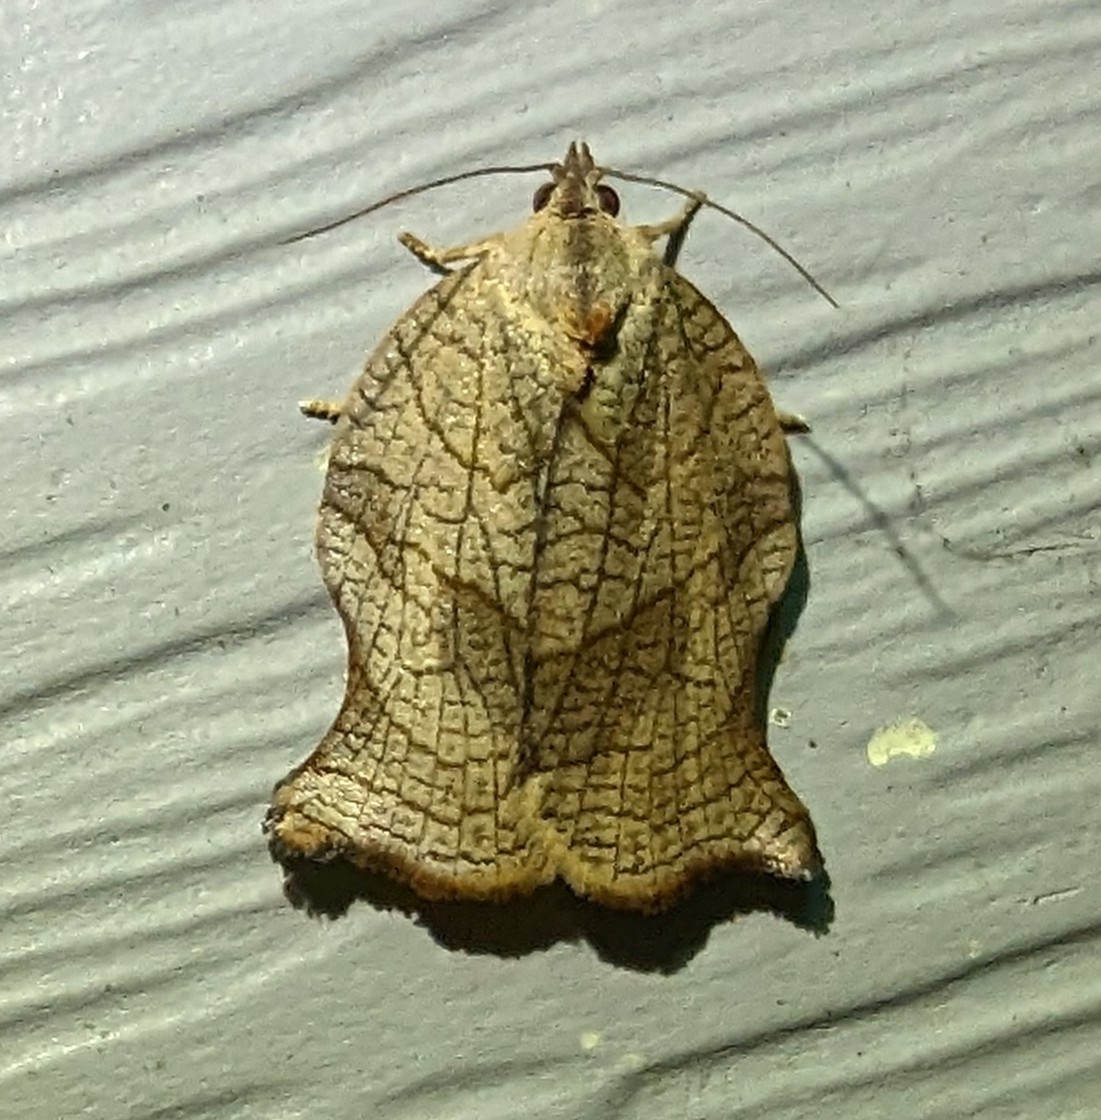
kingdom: Animalia
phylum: Arthropoda
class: Insecta
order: Lepidoptera
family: Tortricidae
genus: Archips
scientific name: Archips purpurana
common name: Omnivorous leafroller
